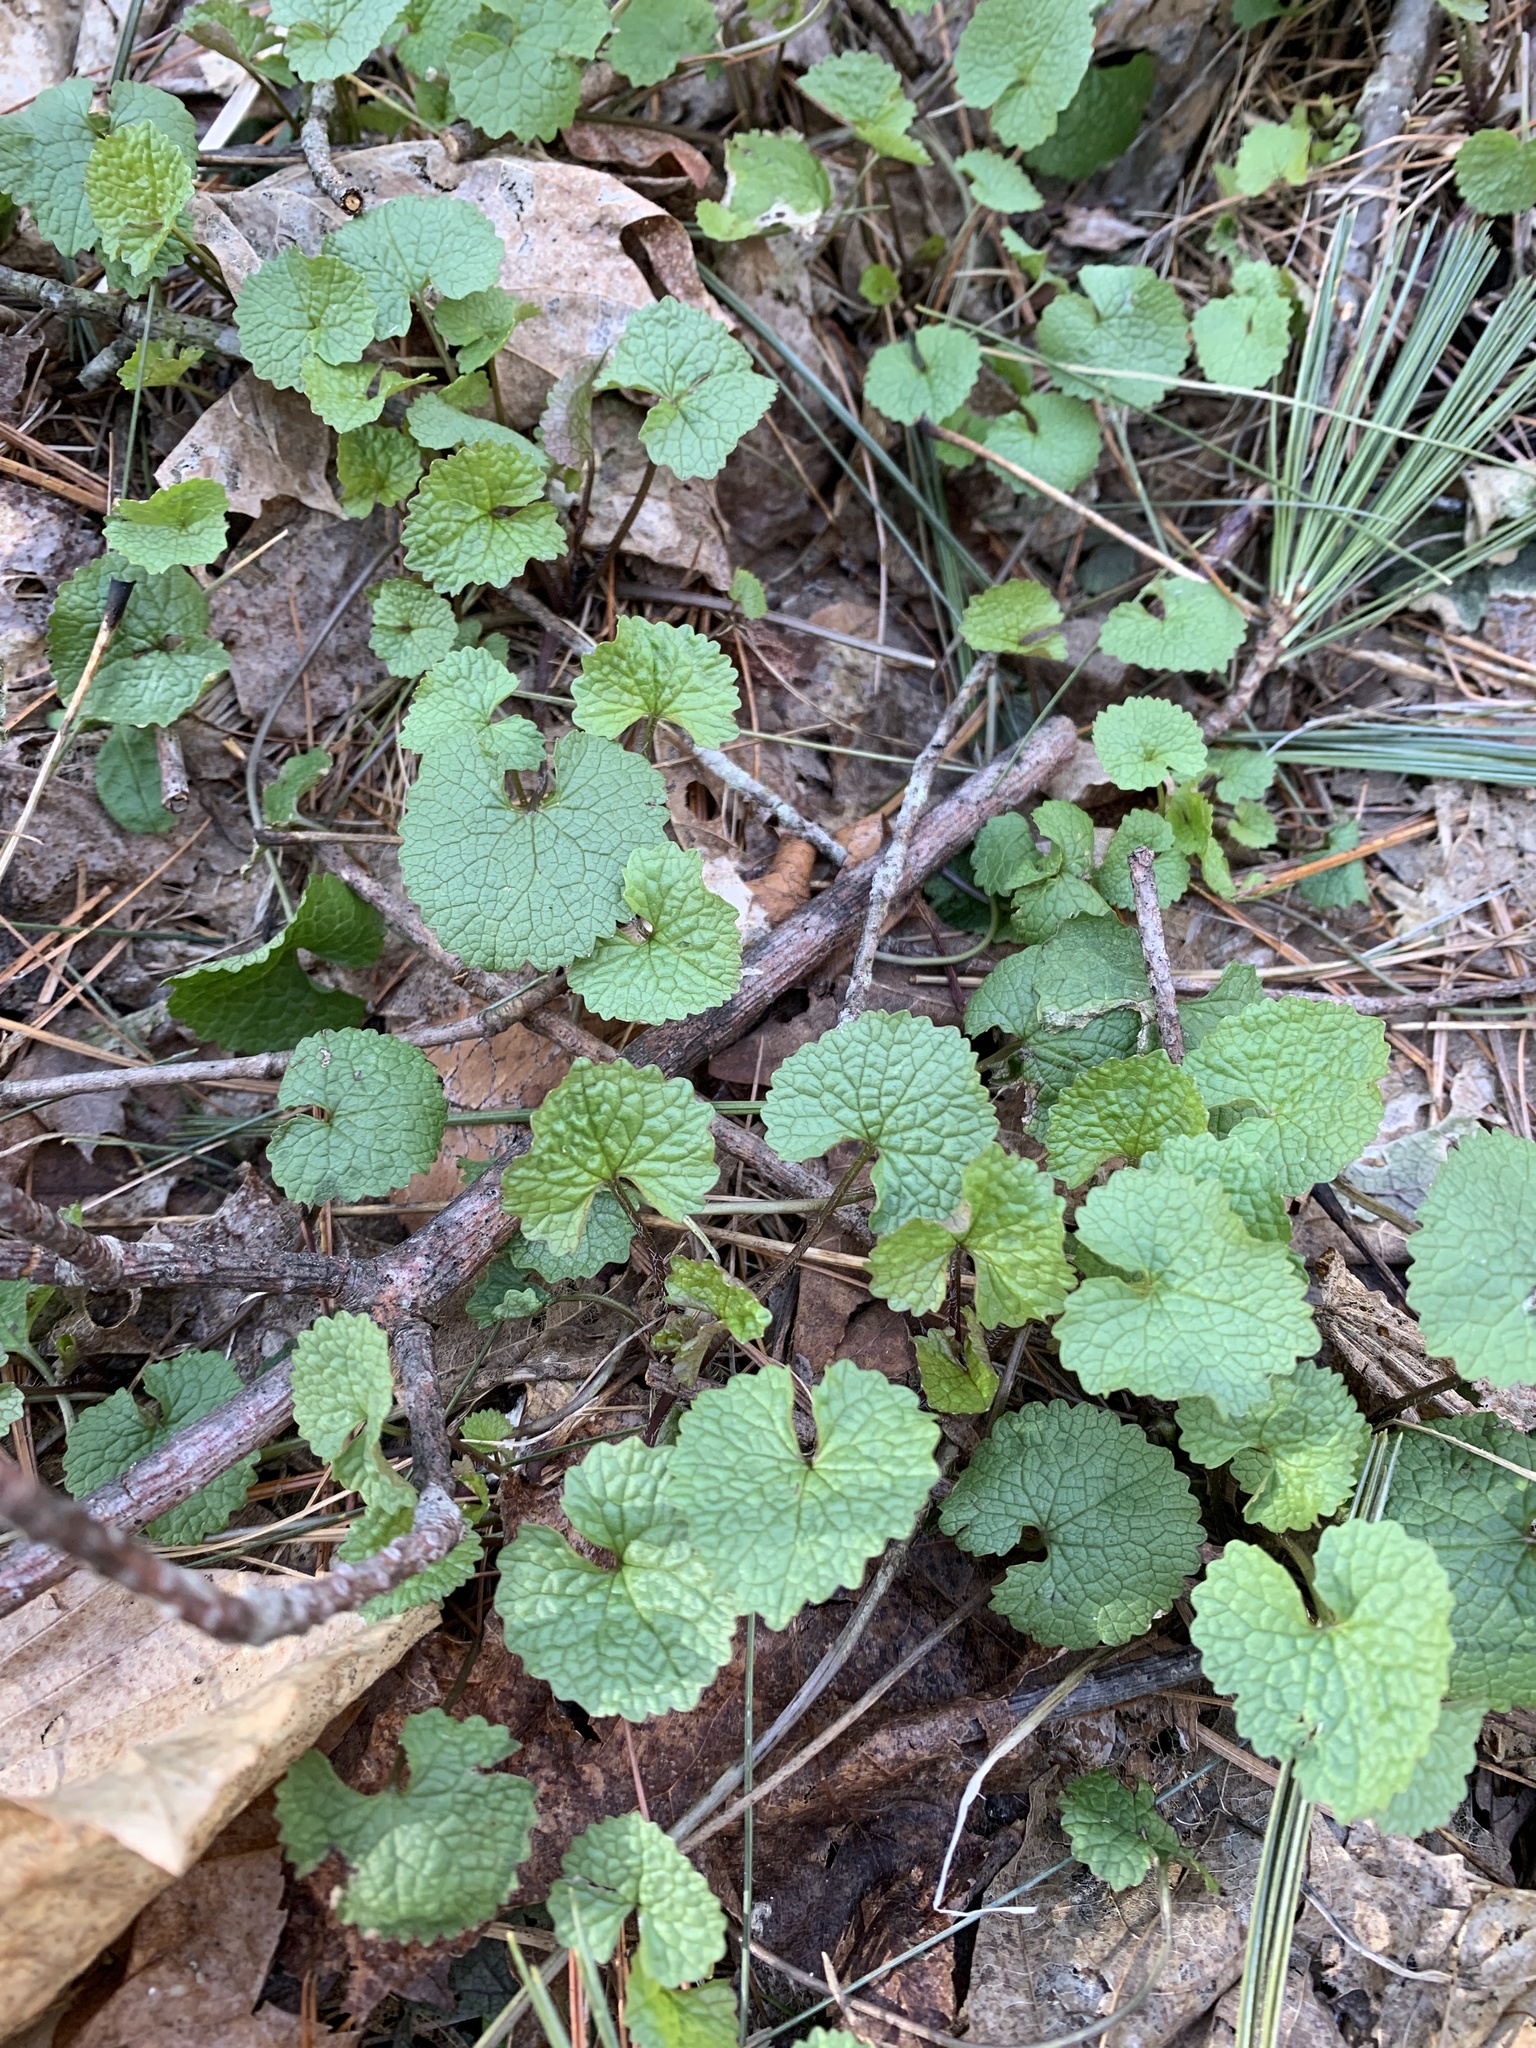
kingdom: Plantae
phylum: Tracheophyta
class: Magnoliopsida
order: Brassicales
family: Brassicaceae
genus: Alliaria
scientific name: Alliaria petiolata
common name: Garlic mustard
